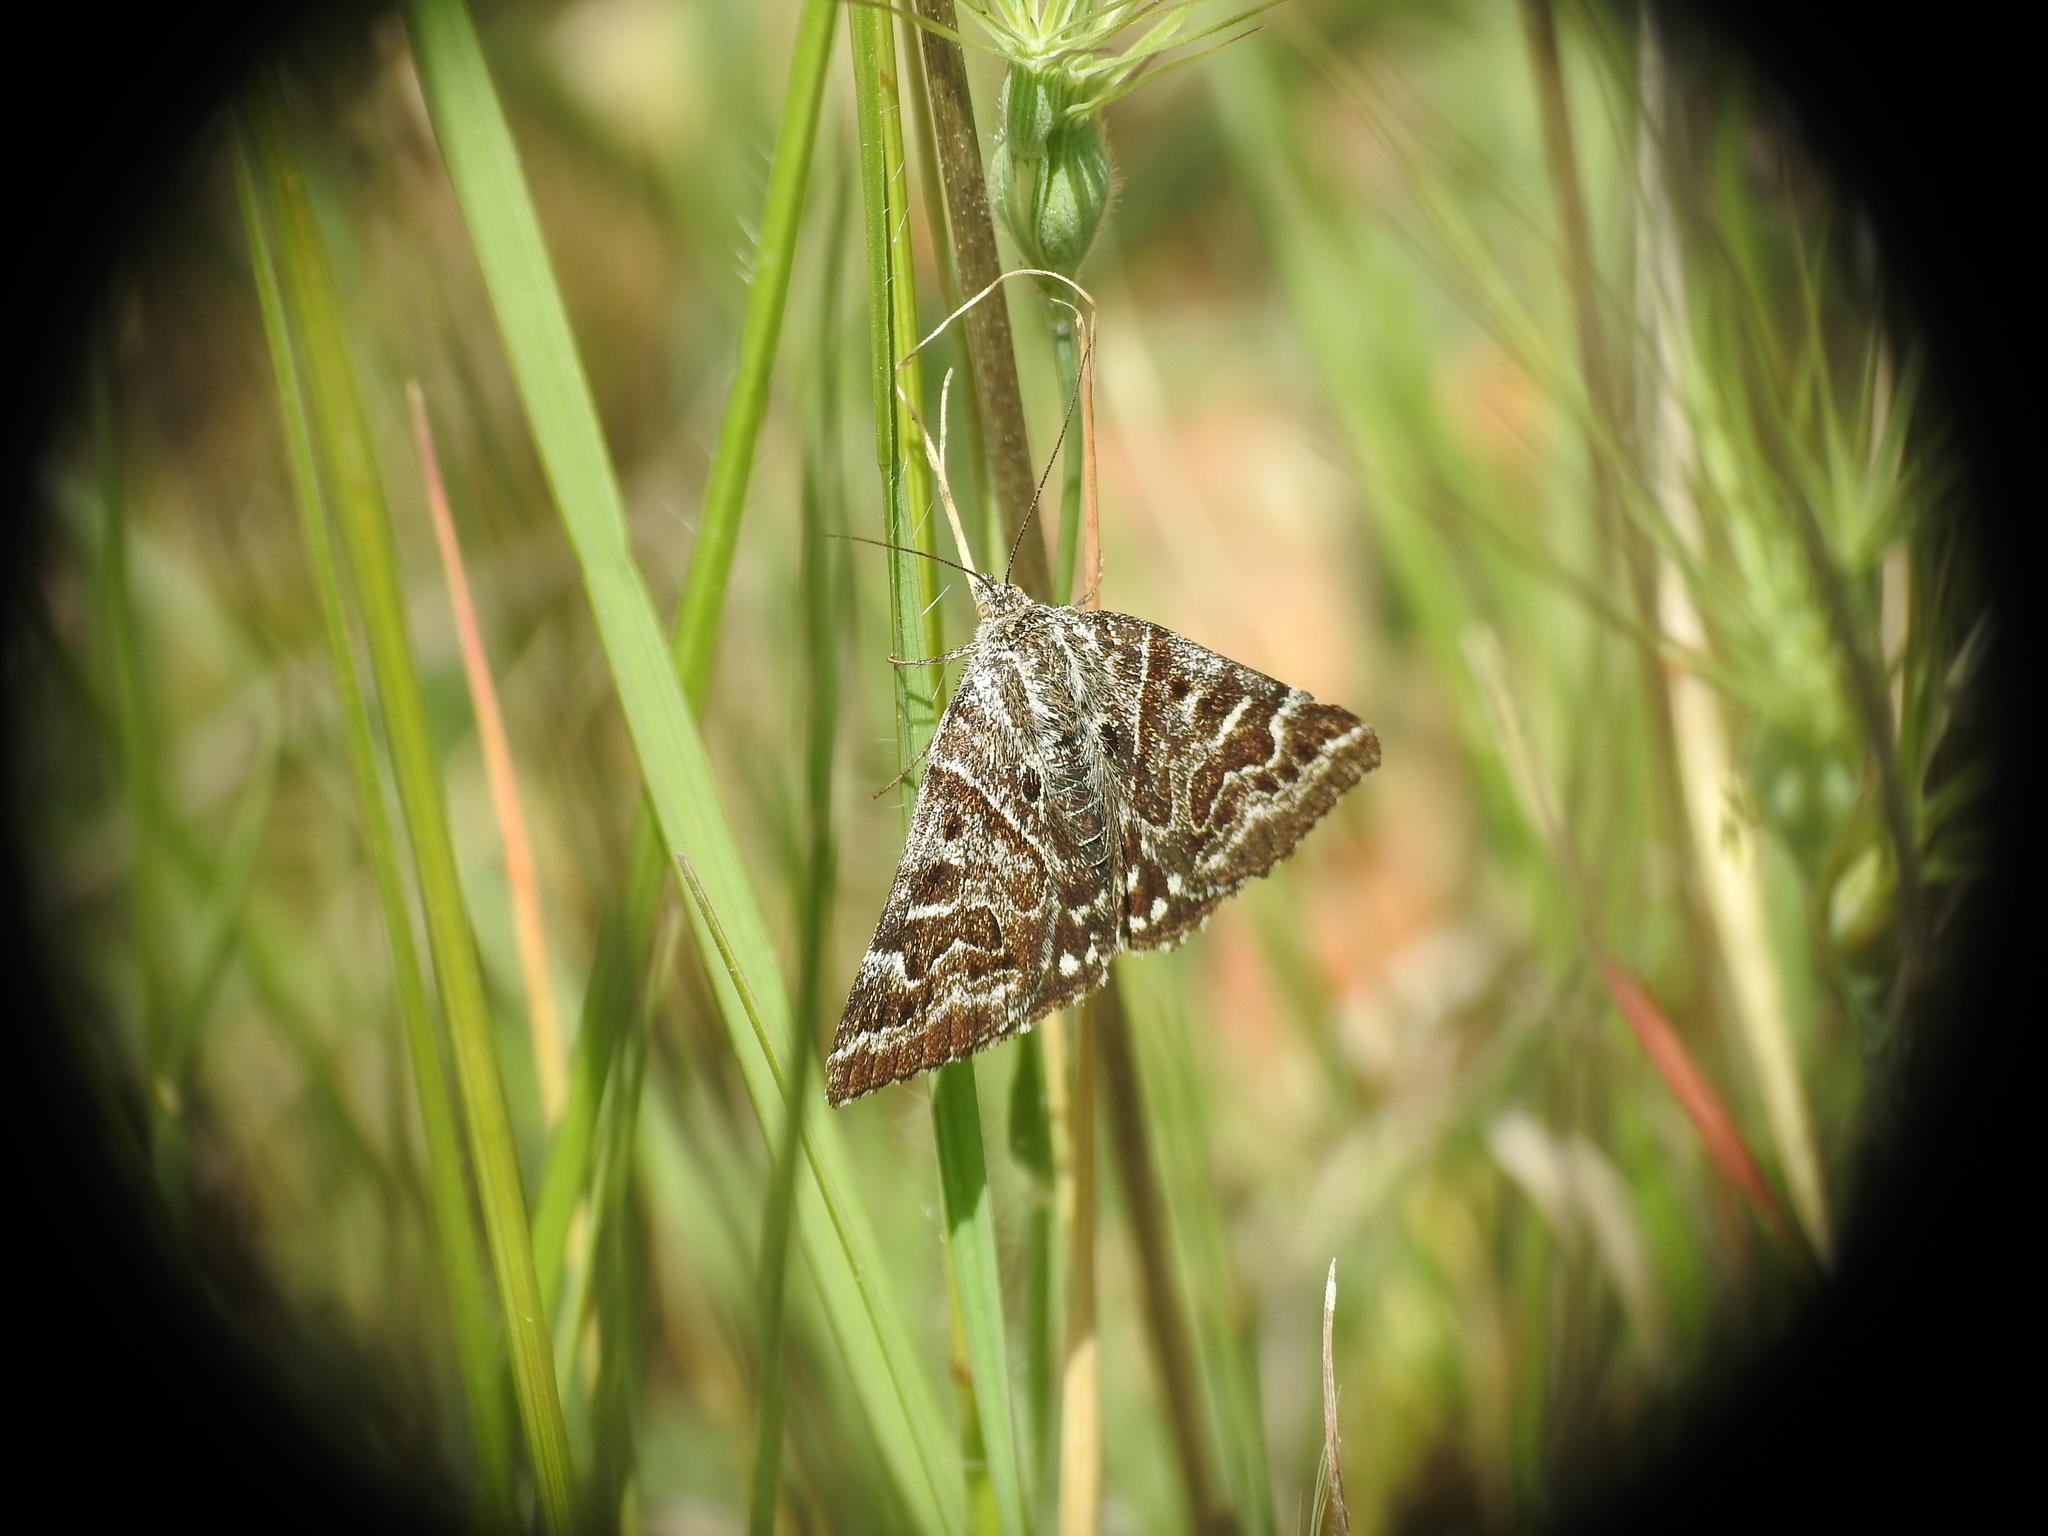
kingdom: Animalia
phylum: Arthropoda
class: Insecta
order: Lepidoptera
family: Erebidae
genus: Callistege
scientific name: Callistege mi
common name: Mother shipton
